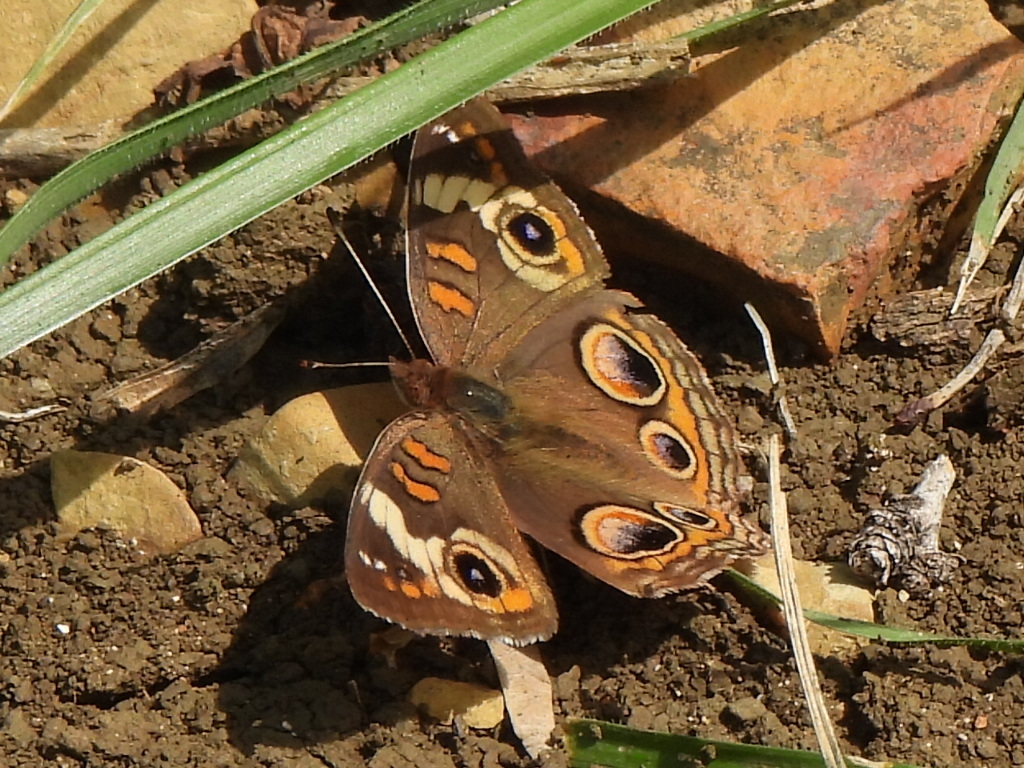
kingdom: Animalia
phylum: Arthropoda
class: Insecta
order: Lepidoptera
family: Nymphalidae
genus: Junonia
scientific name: Junonia coenia
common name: Common buckeye
